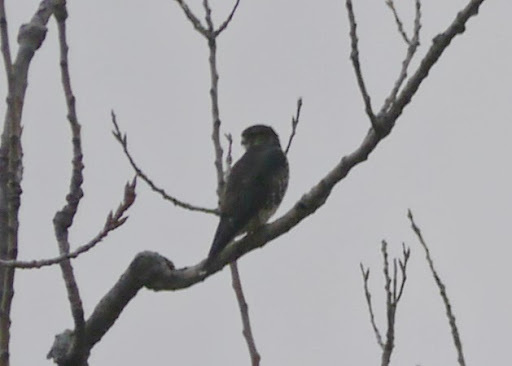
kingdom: Animalia
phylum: Chordata
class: Aves
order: Falconiformes
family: Falconidae
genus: Falco
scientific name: Falco columbarius
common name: Merlin
